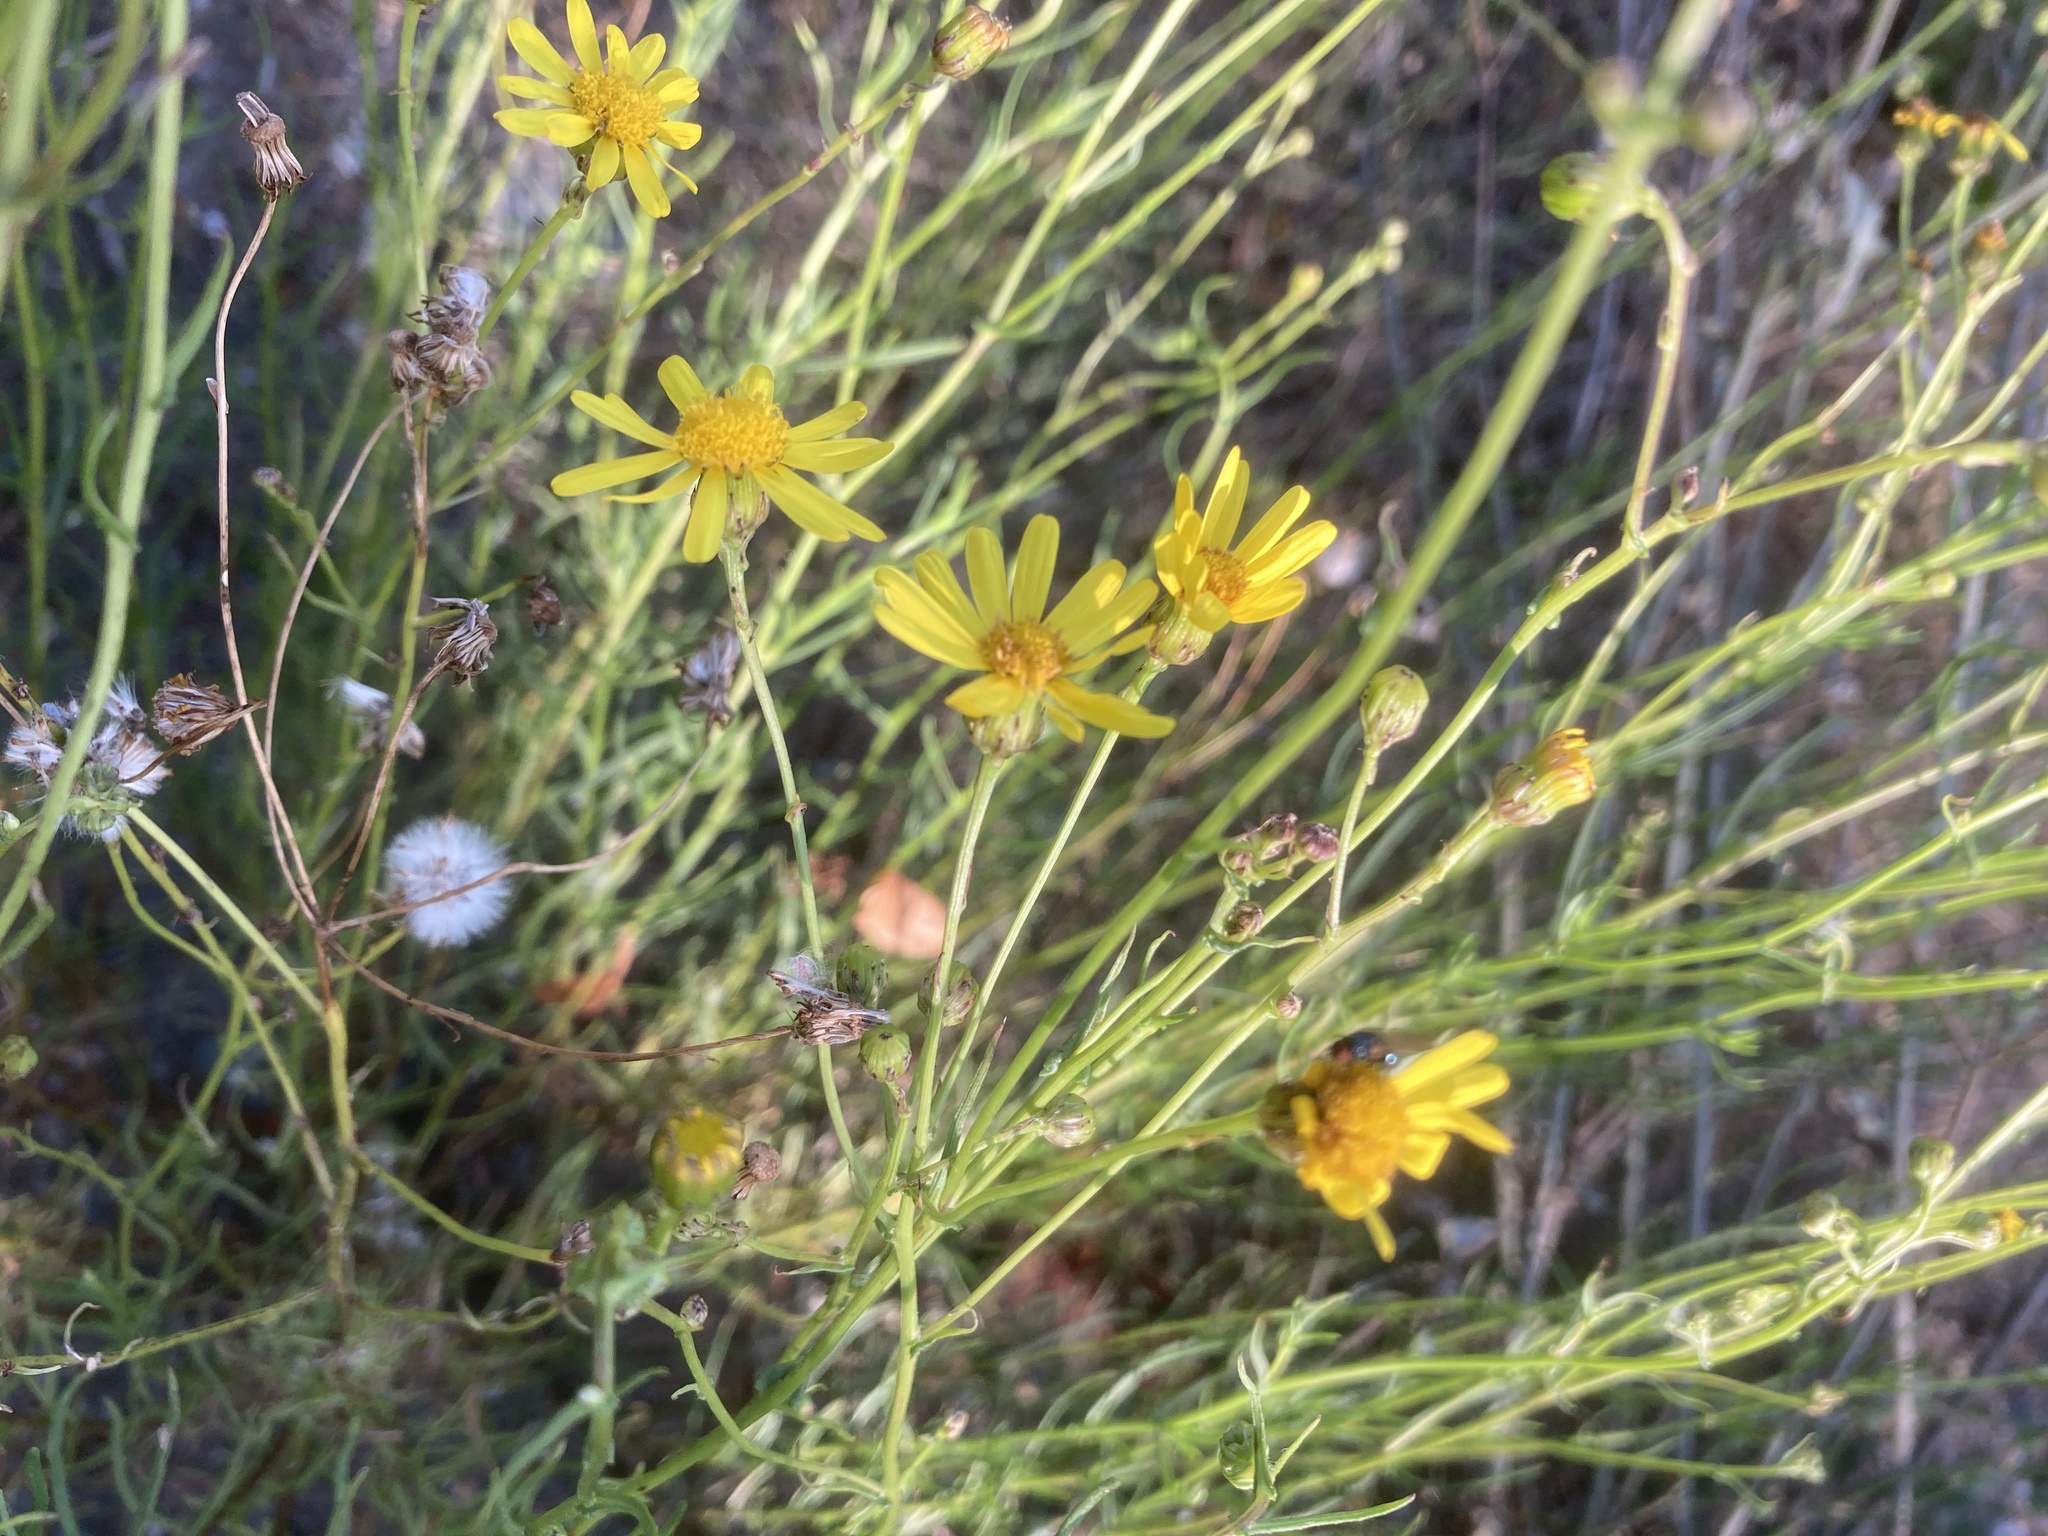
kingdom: Plantae
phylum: Tracheophyta
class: Magnoliopsida
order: Asterales
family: Asteraceae
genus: Senecio
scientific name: Senecio inaequidens
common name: Narrow-leaved ragwort
